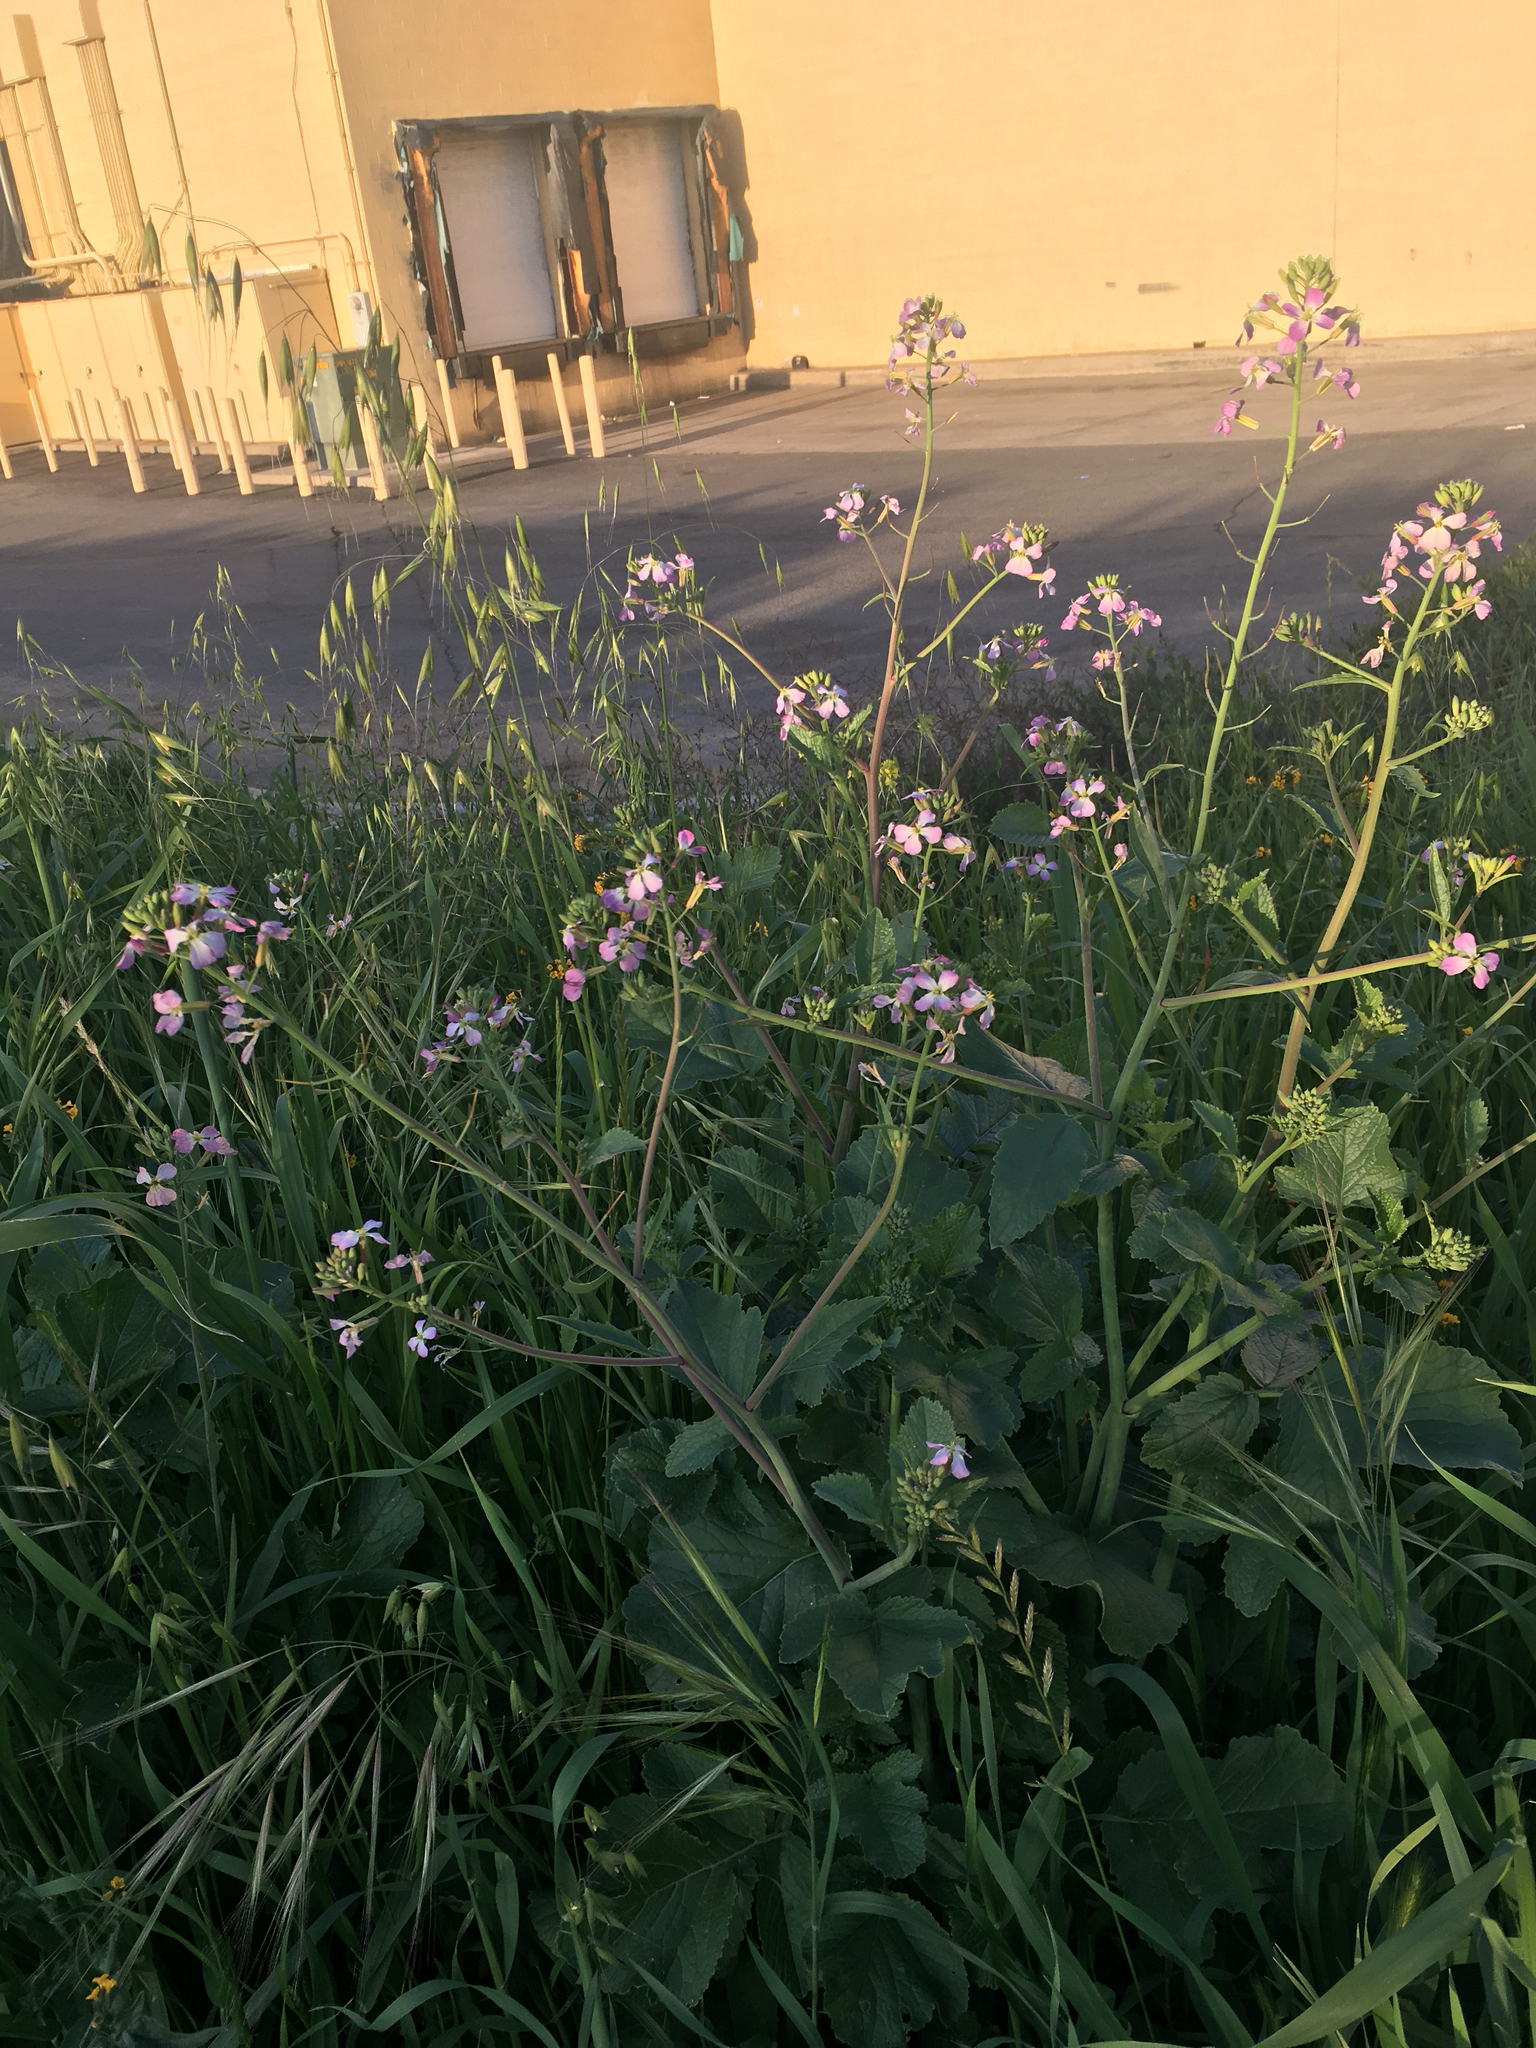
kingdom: Plantae
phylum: Tracheophyta
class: Magnoliopsida
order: Brassicales
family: Brassicaceae
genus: Raphanus
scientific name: Raphanus sativus
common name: Cultivated radish
